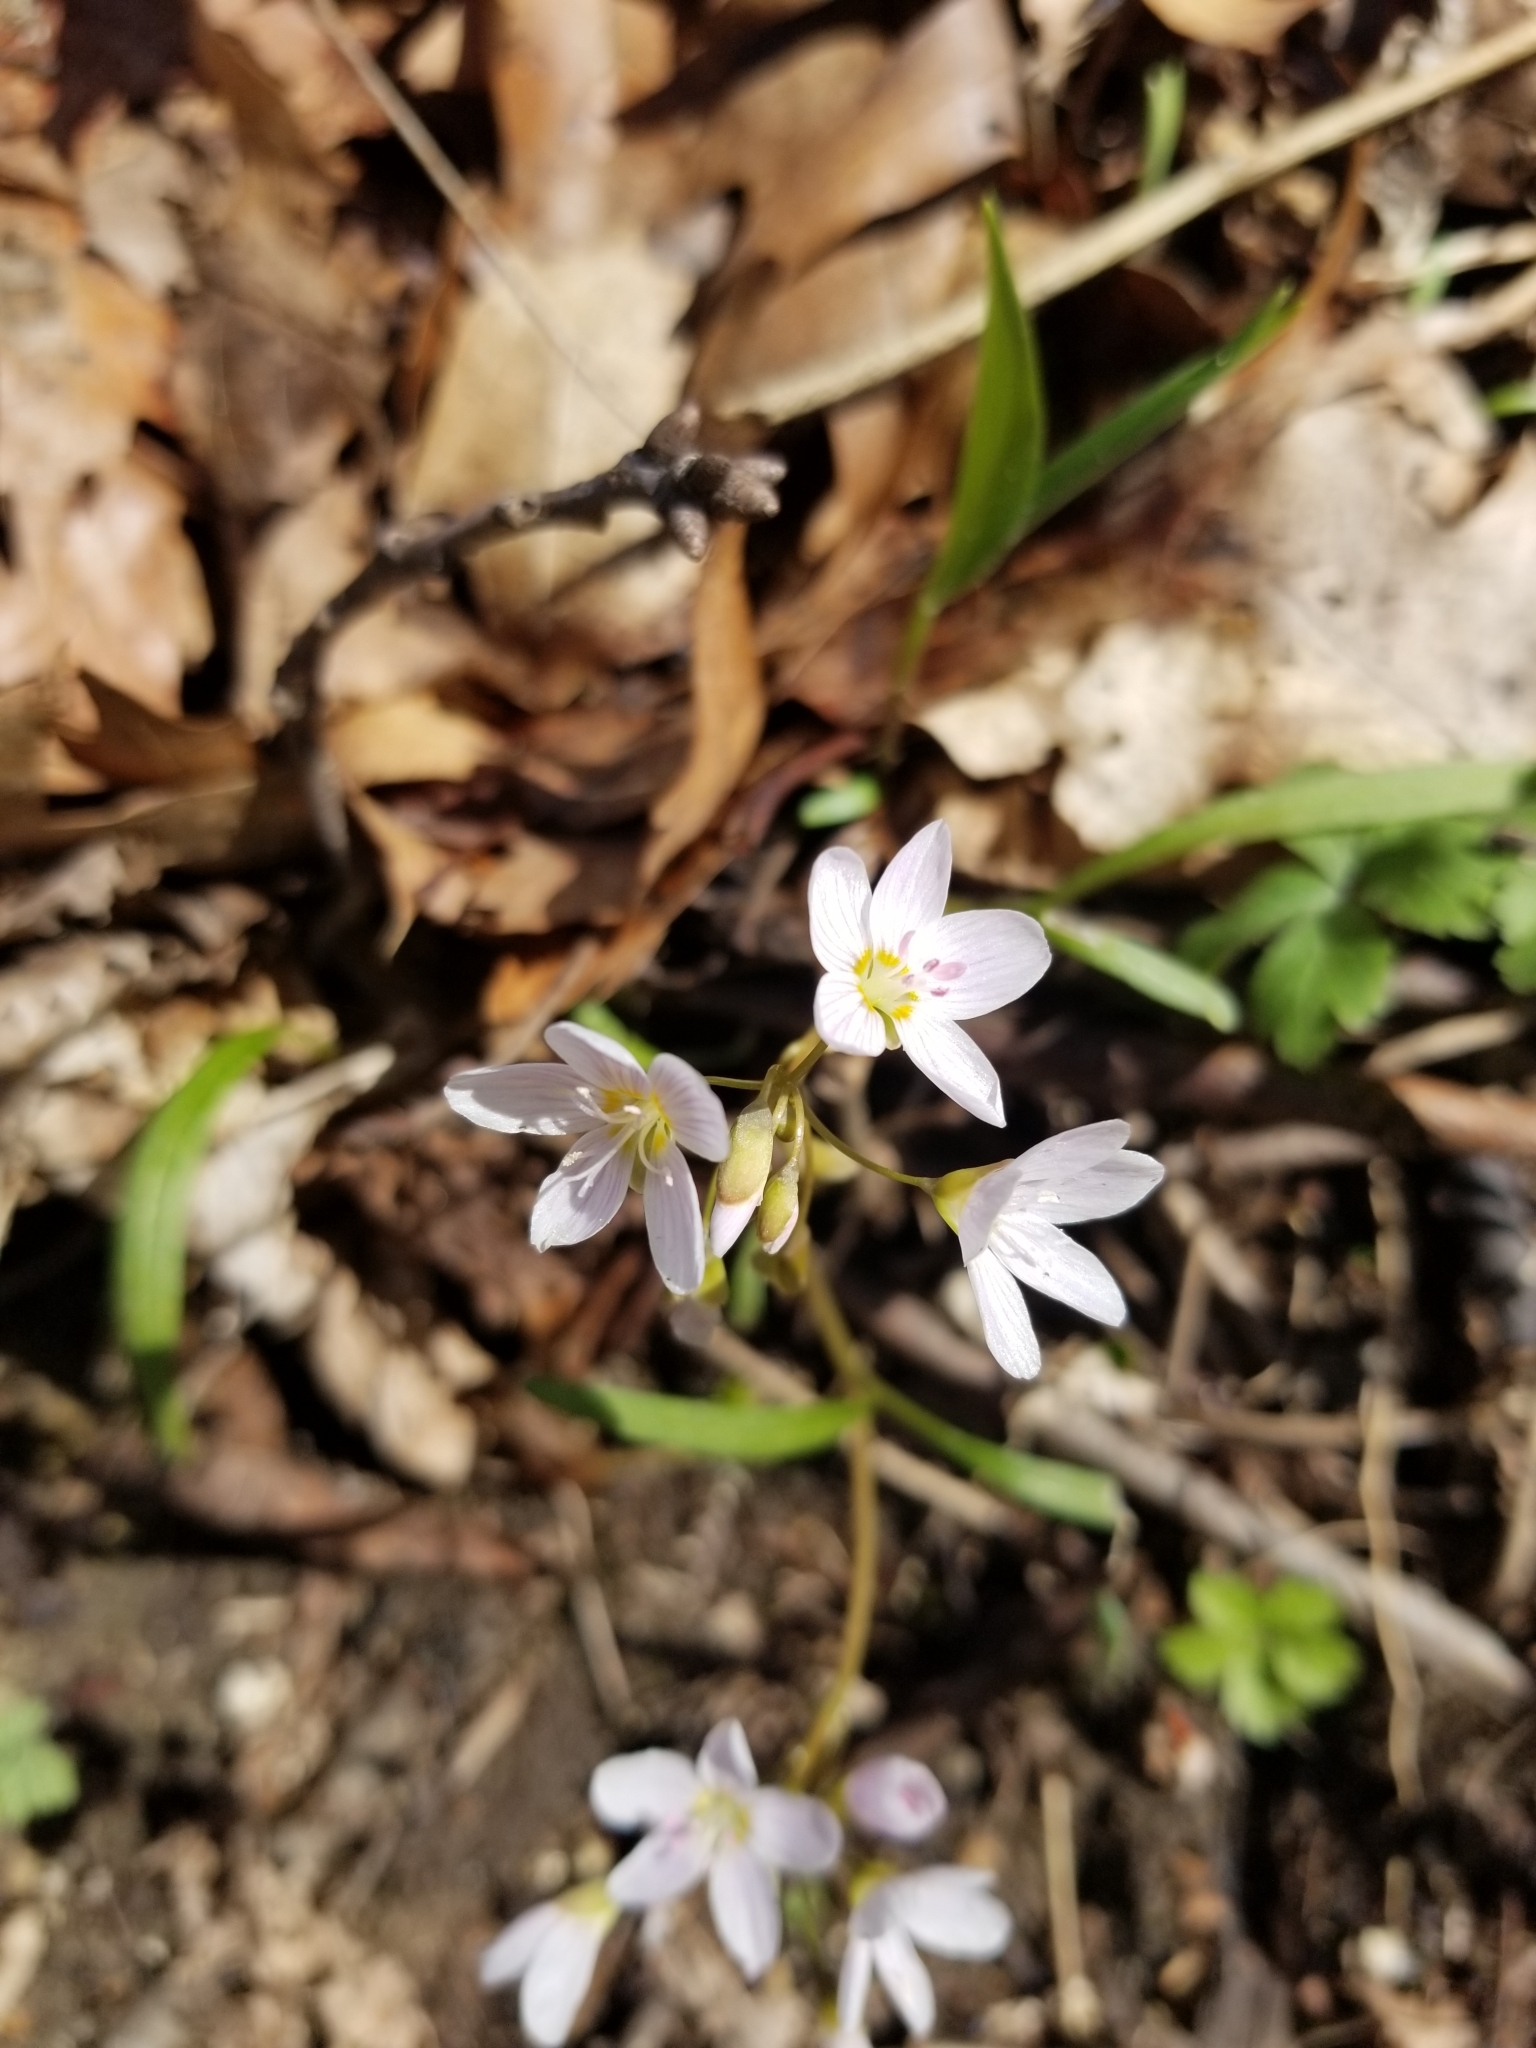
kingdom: Plantae
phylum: Tracheophyta
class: Magnoliopsida
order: Caryophyllales
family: Montiaceae
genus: Claytonia
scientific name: Claytonia virginica
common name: Virginia springbeauty
